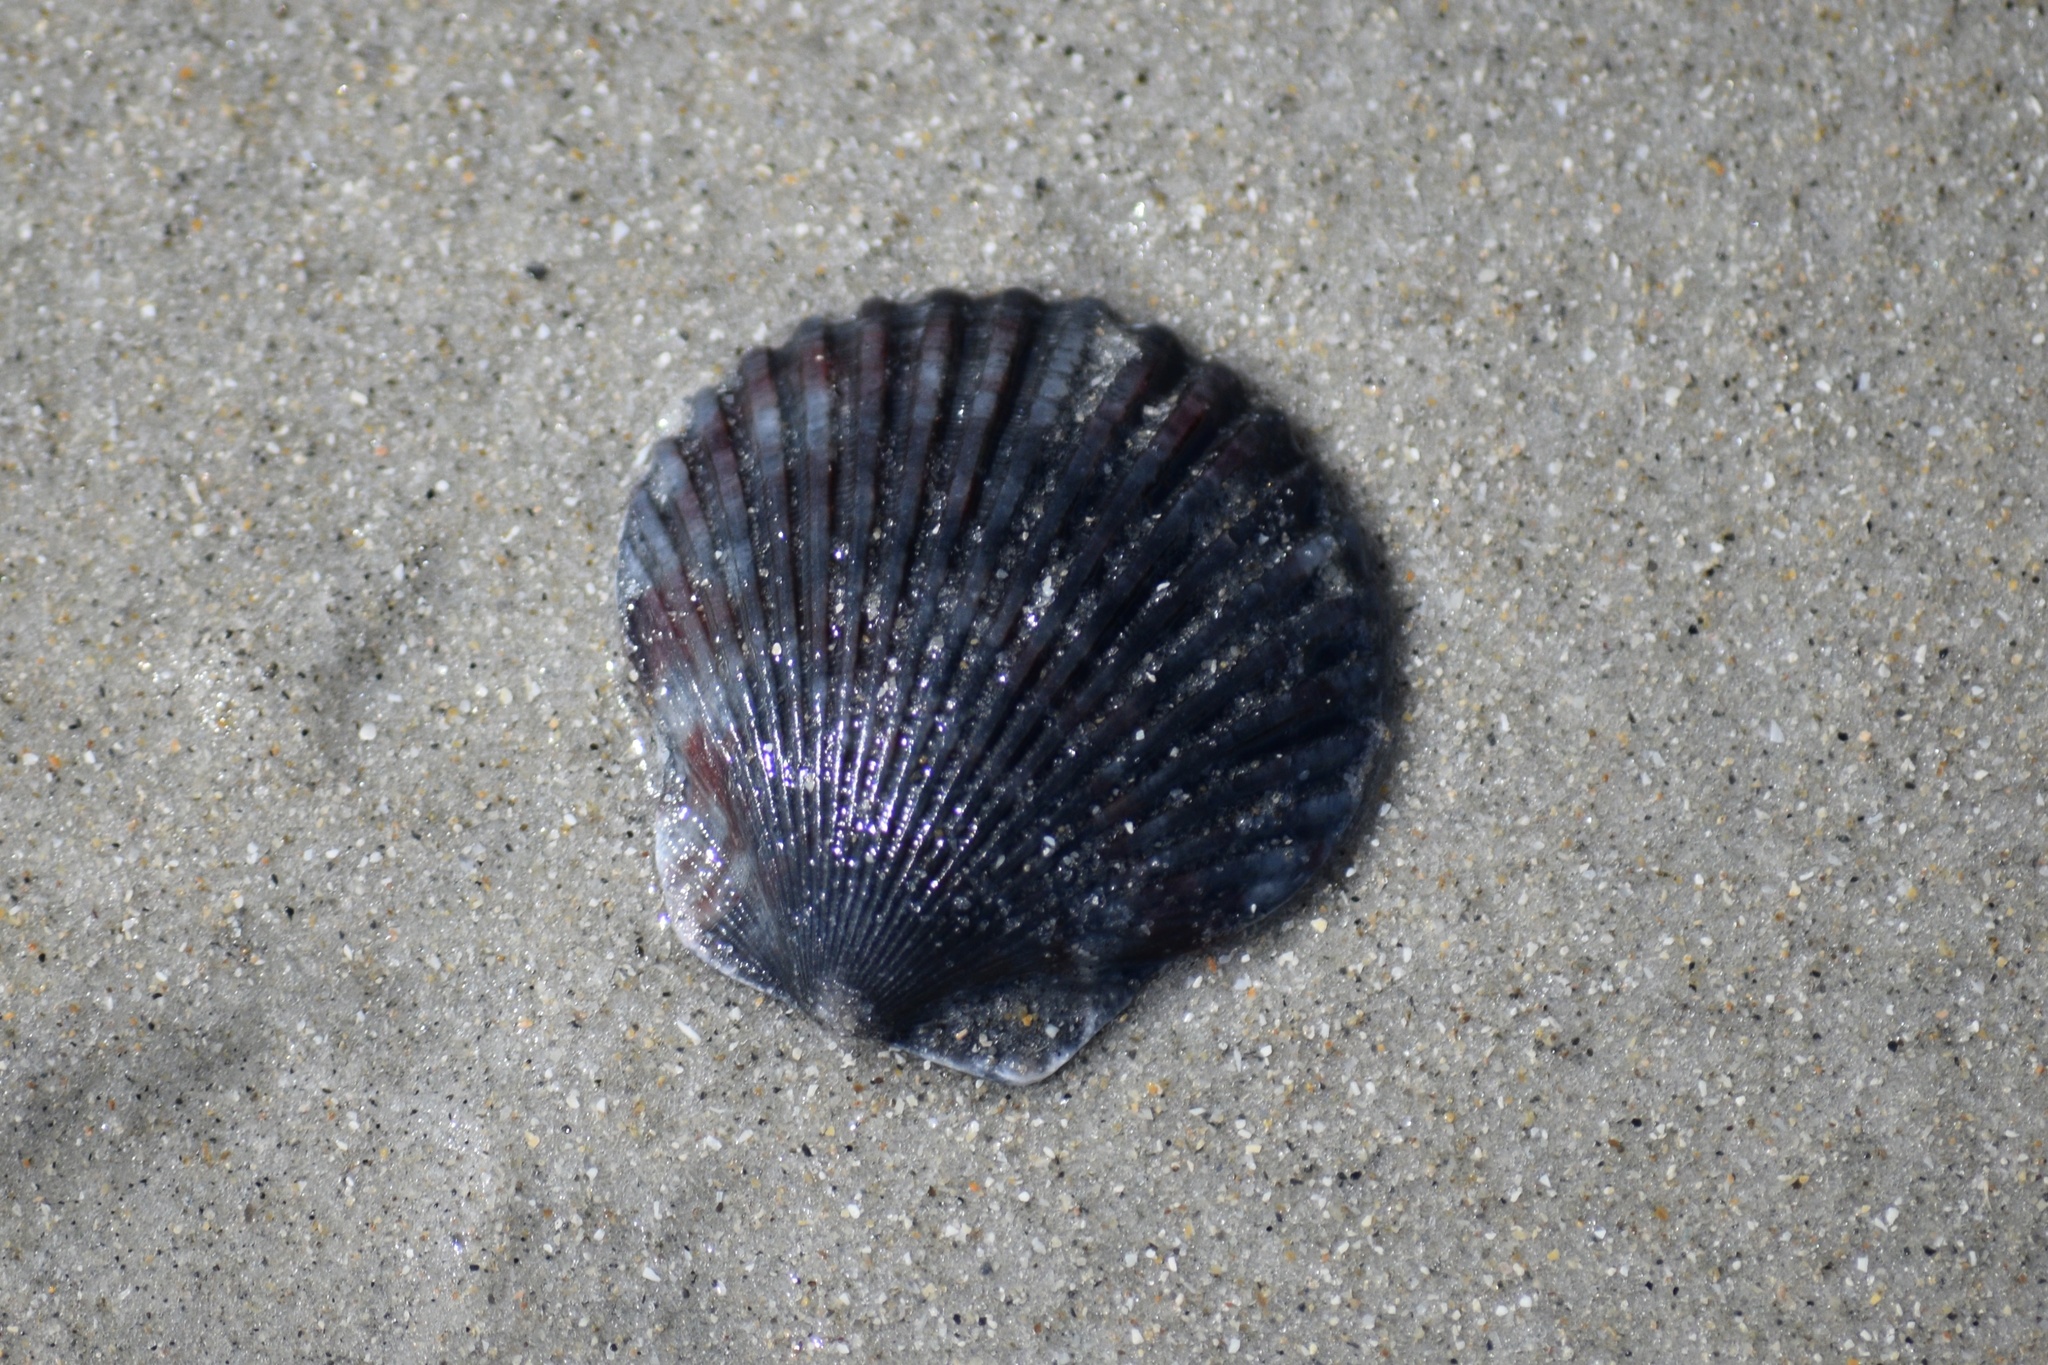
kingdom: Animalia
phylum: Mollusca
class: Bivalvia
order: Pectinida
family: Pectinidae
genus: Argopecten
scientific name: Argopecten gibbus
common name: Atlantic calico scallop
